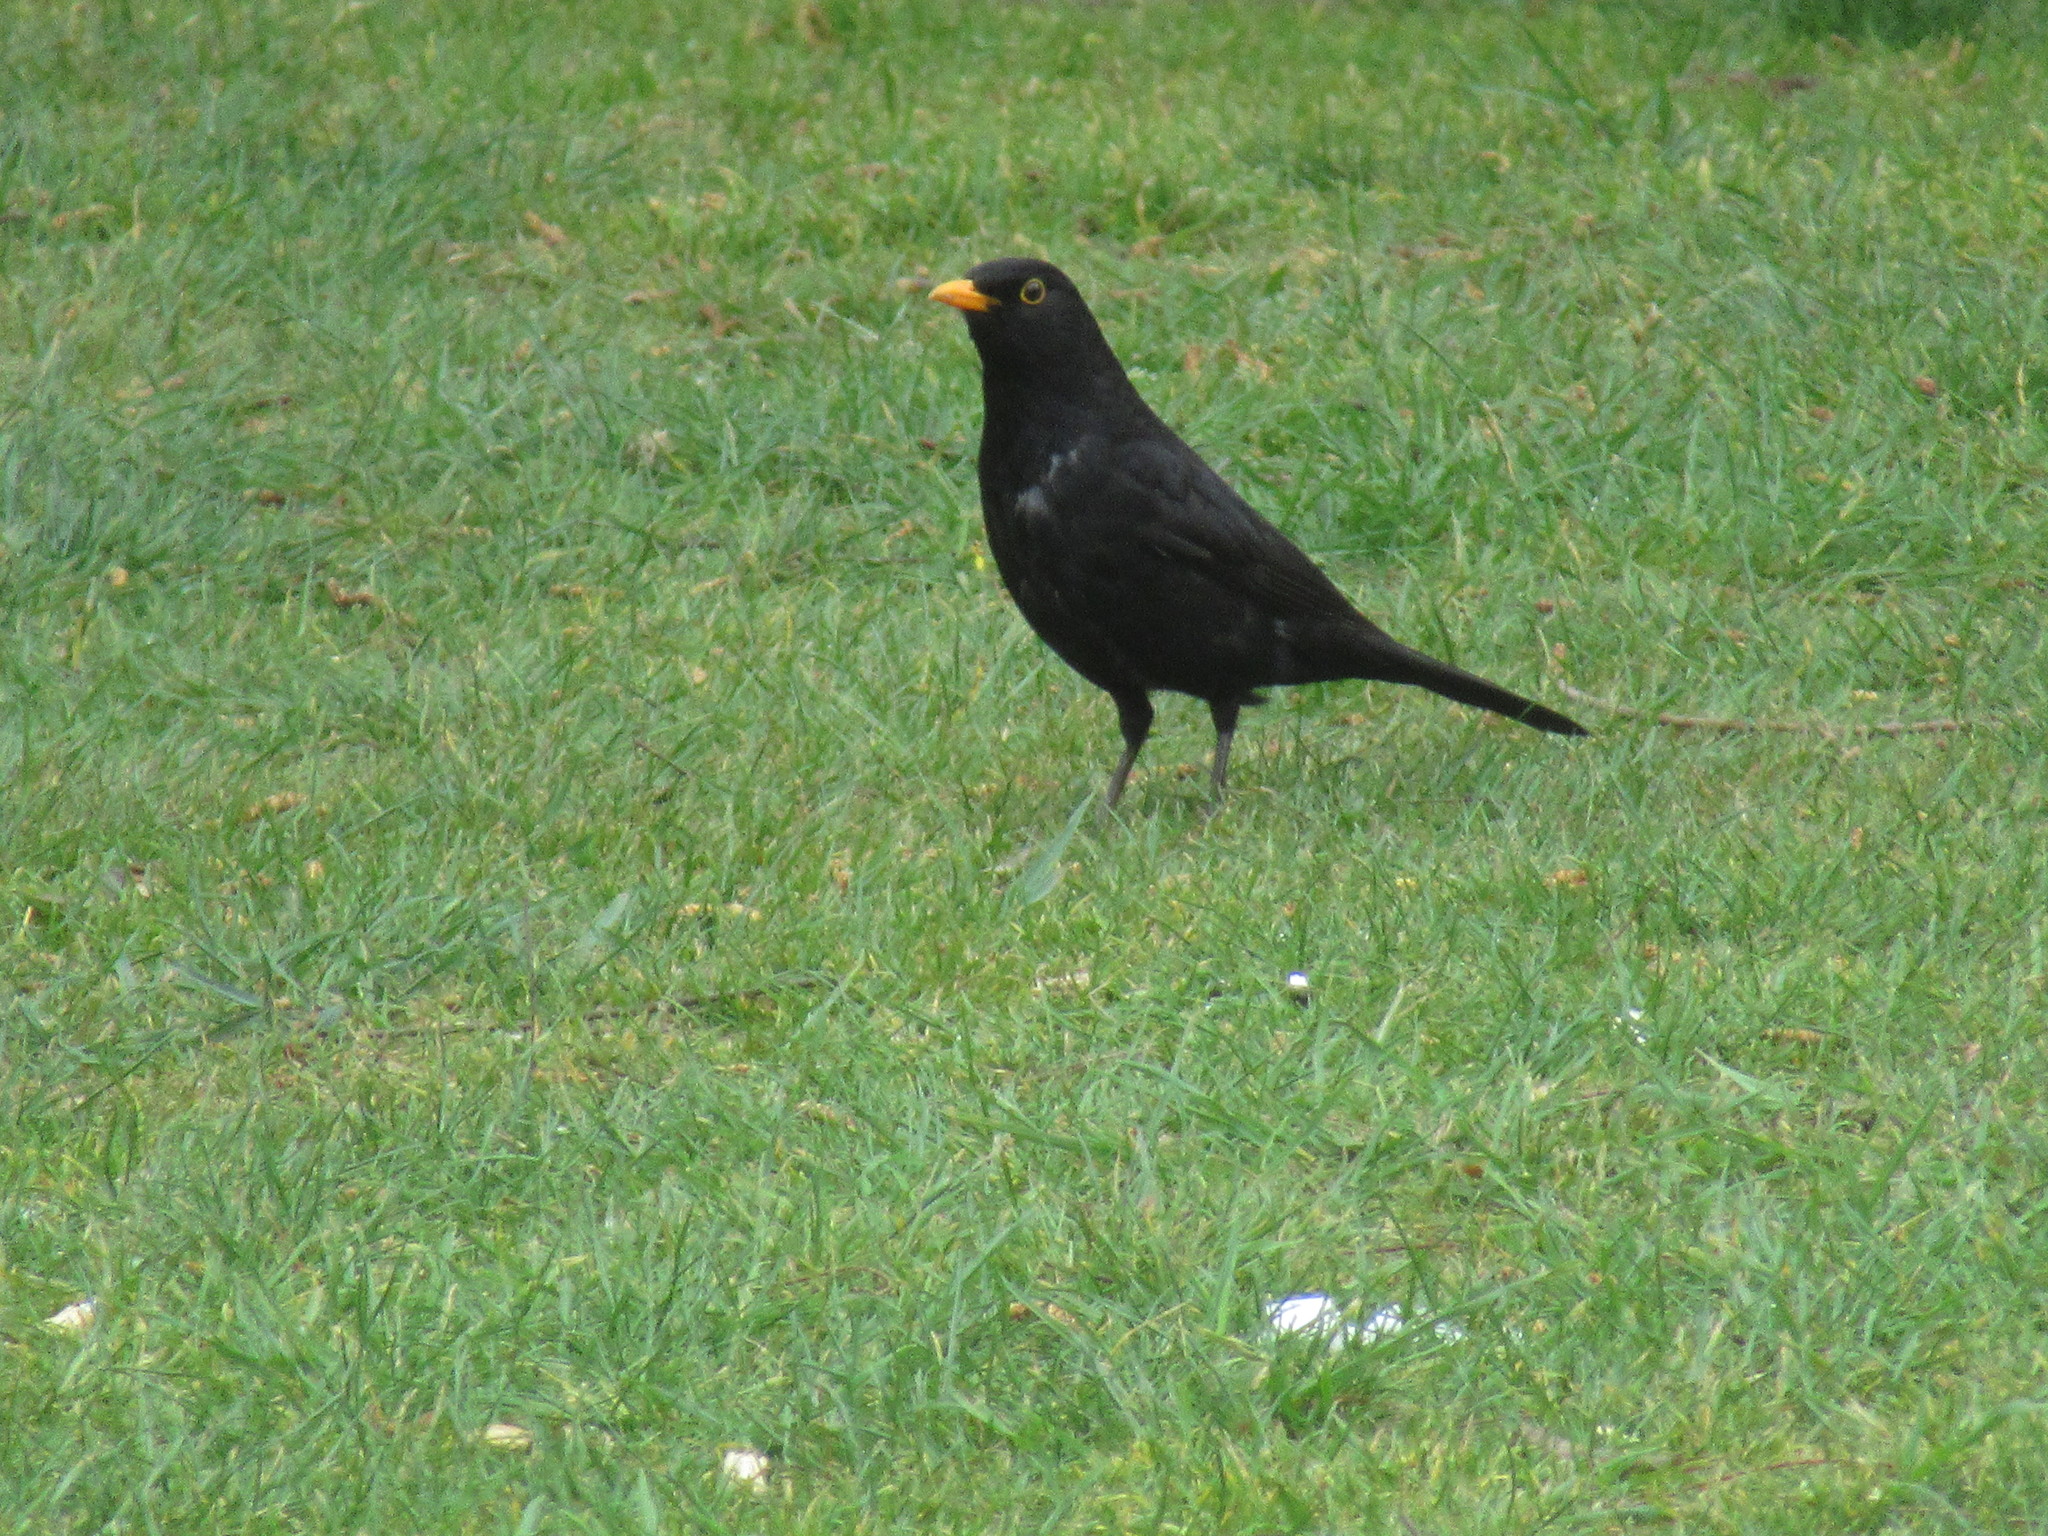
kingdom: Animalia
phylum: Chordata
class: Aves
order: Passeriformes
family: Turdidae
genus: Turdus
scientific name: Turdus merula
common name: Common blackbird
